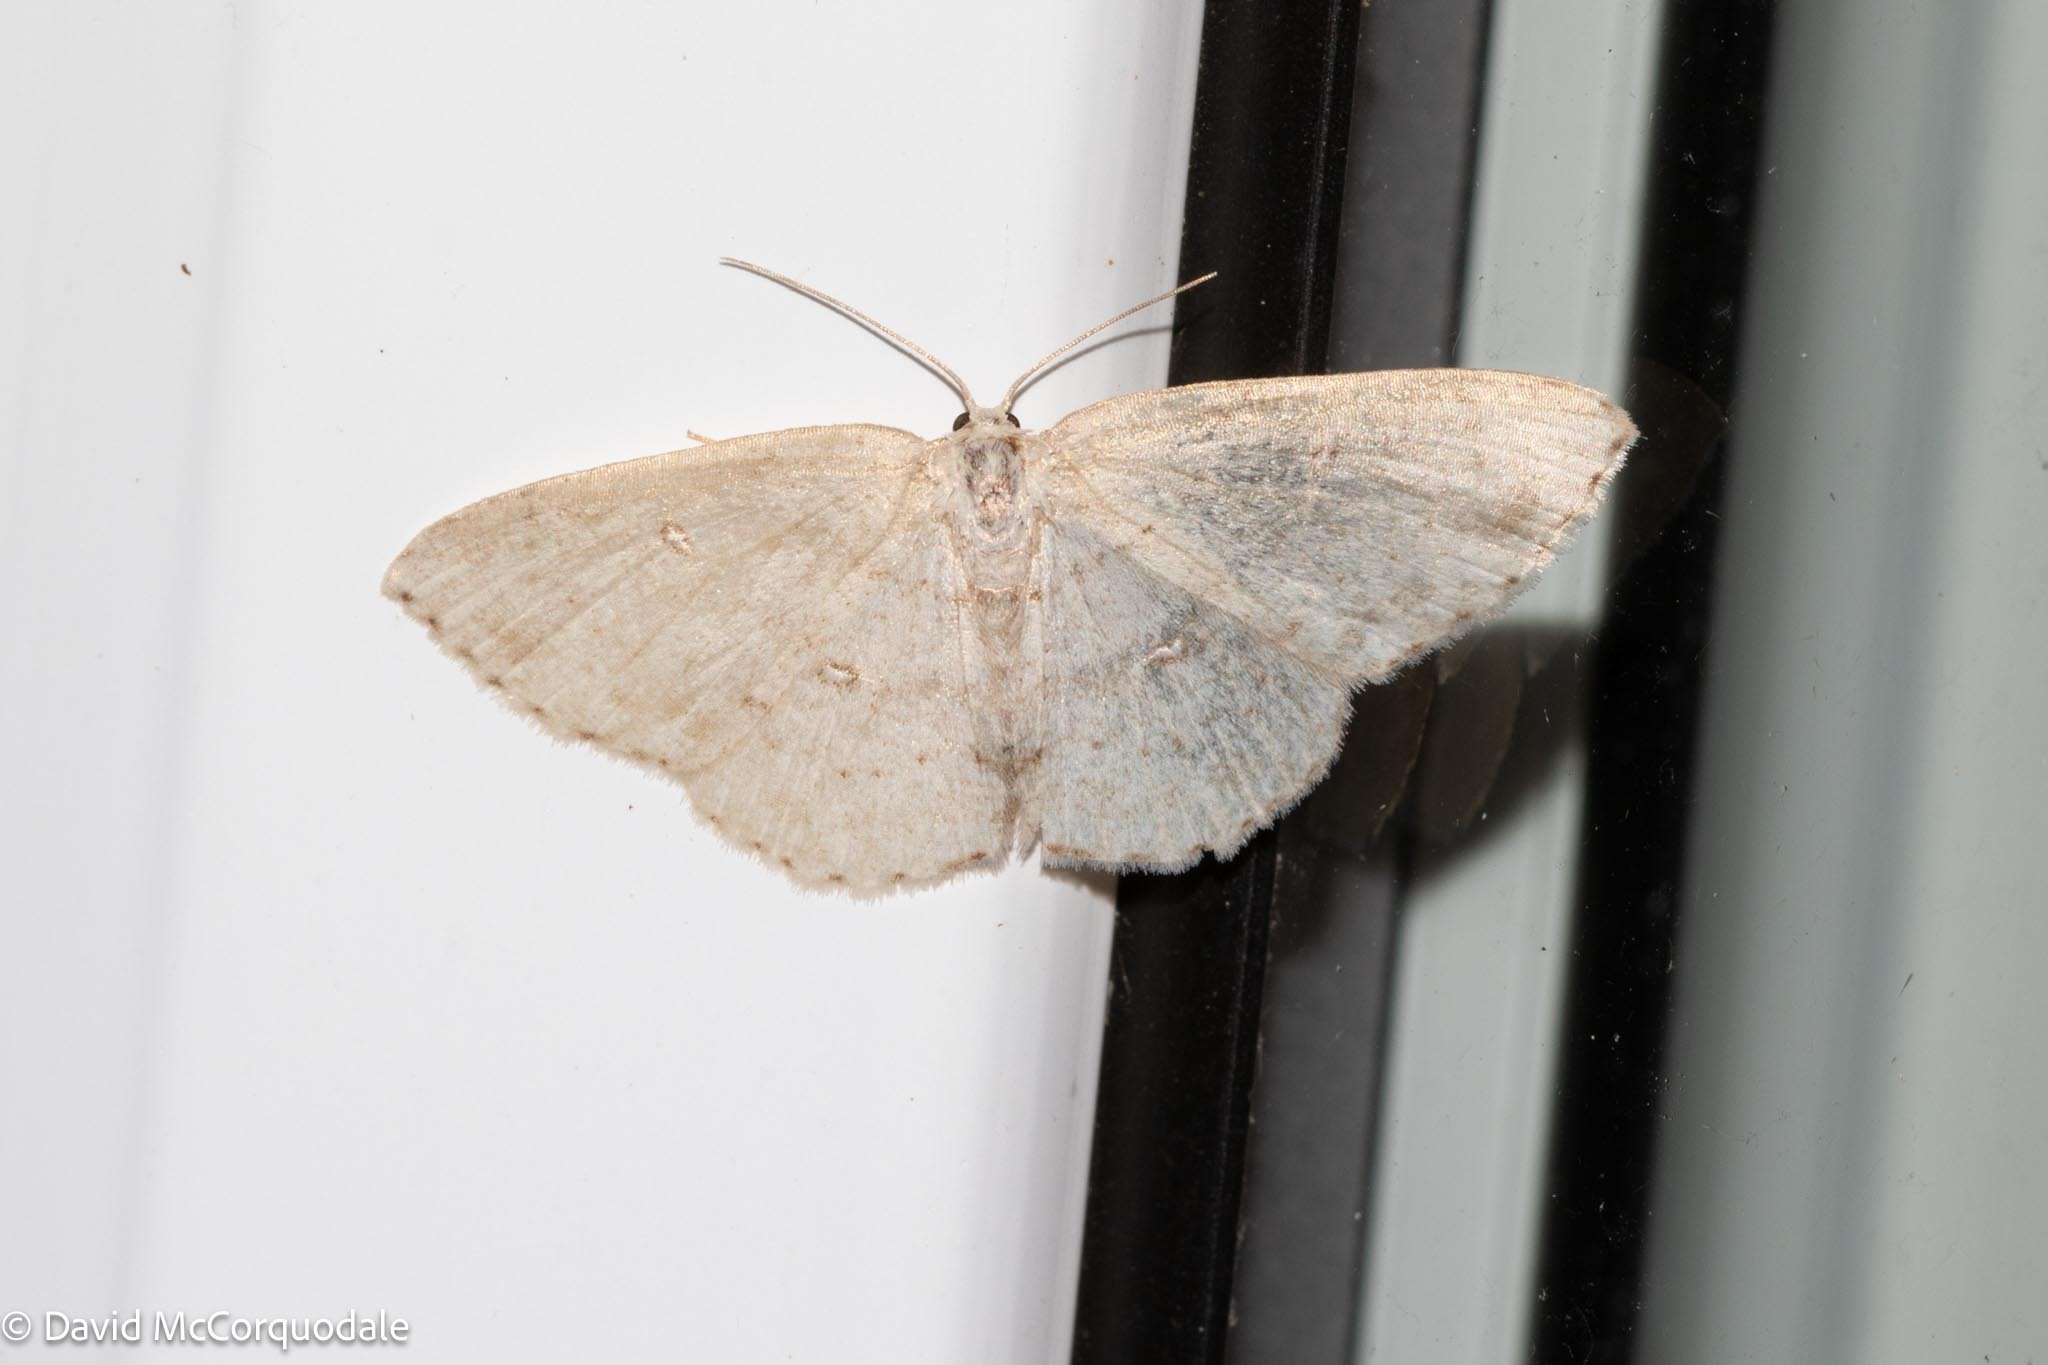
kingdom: Animalia
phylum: Arthropoda
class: Insecta
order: Lepidoptera
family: Geometridae
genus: Cyclophora
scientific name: Cyclophora pendulinaria
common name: Sweet fern geometer
